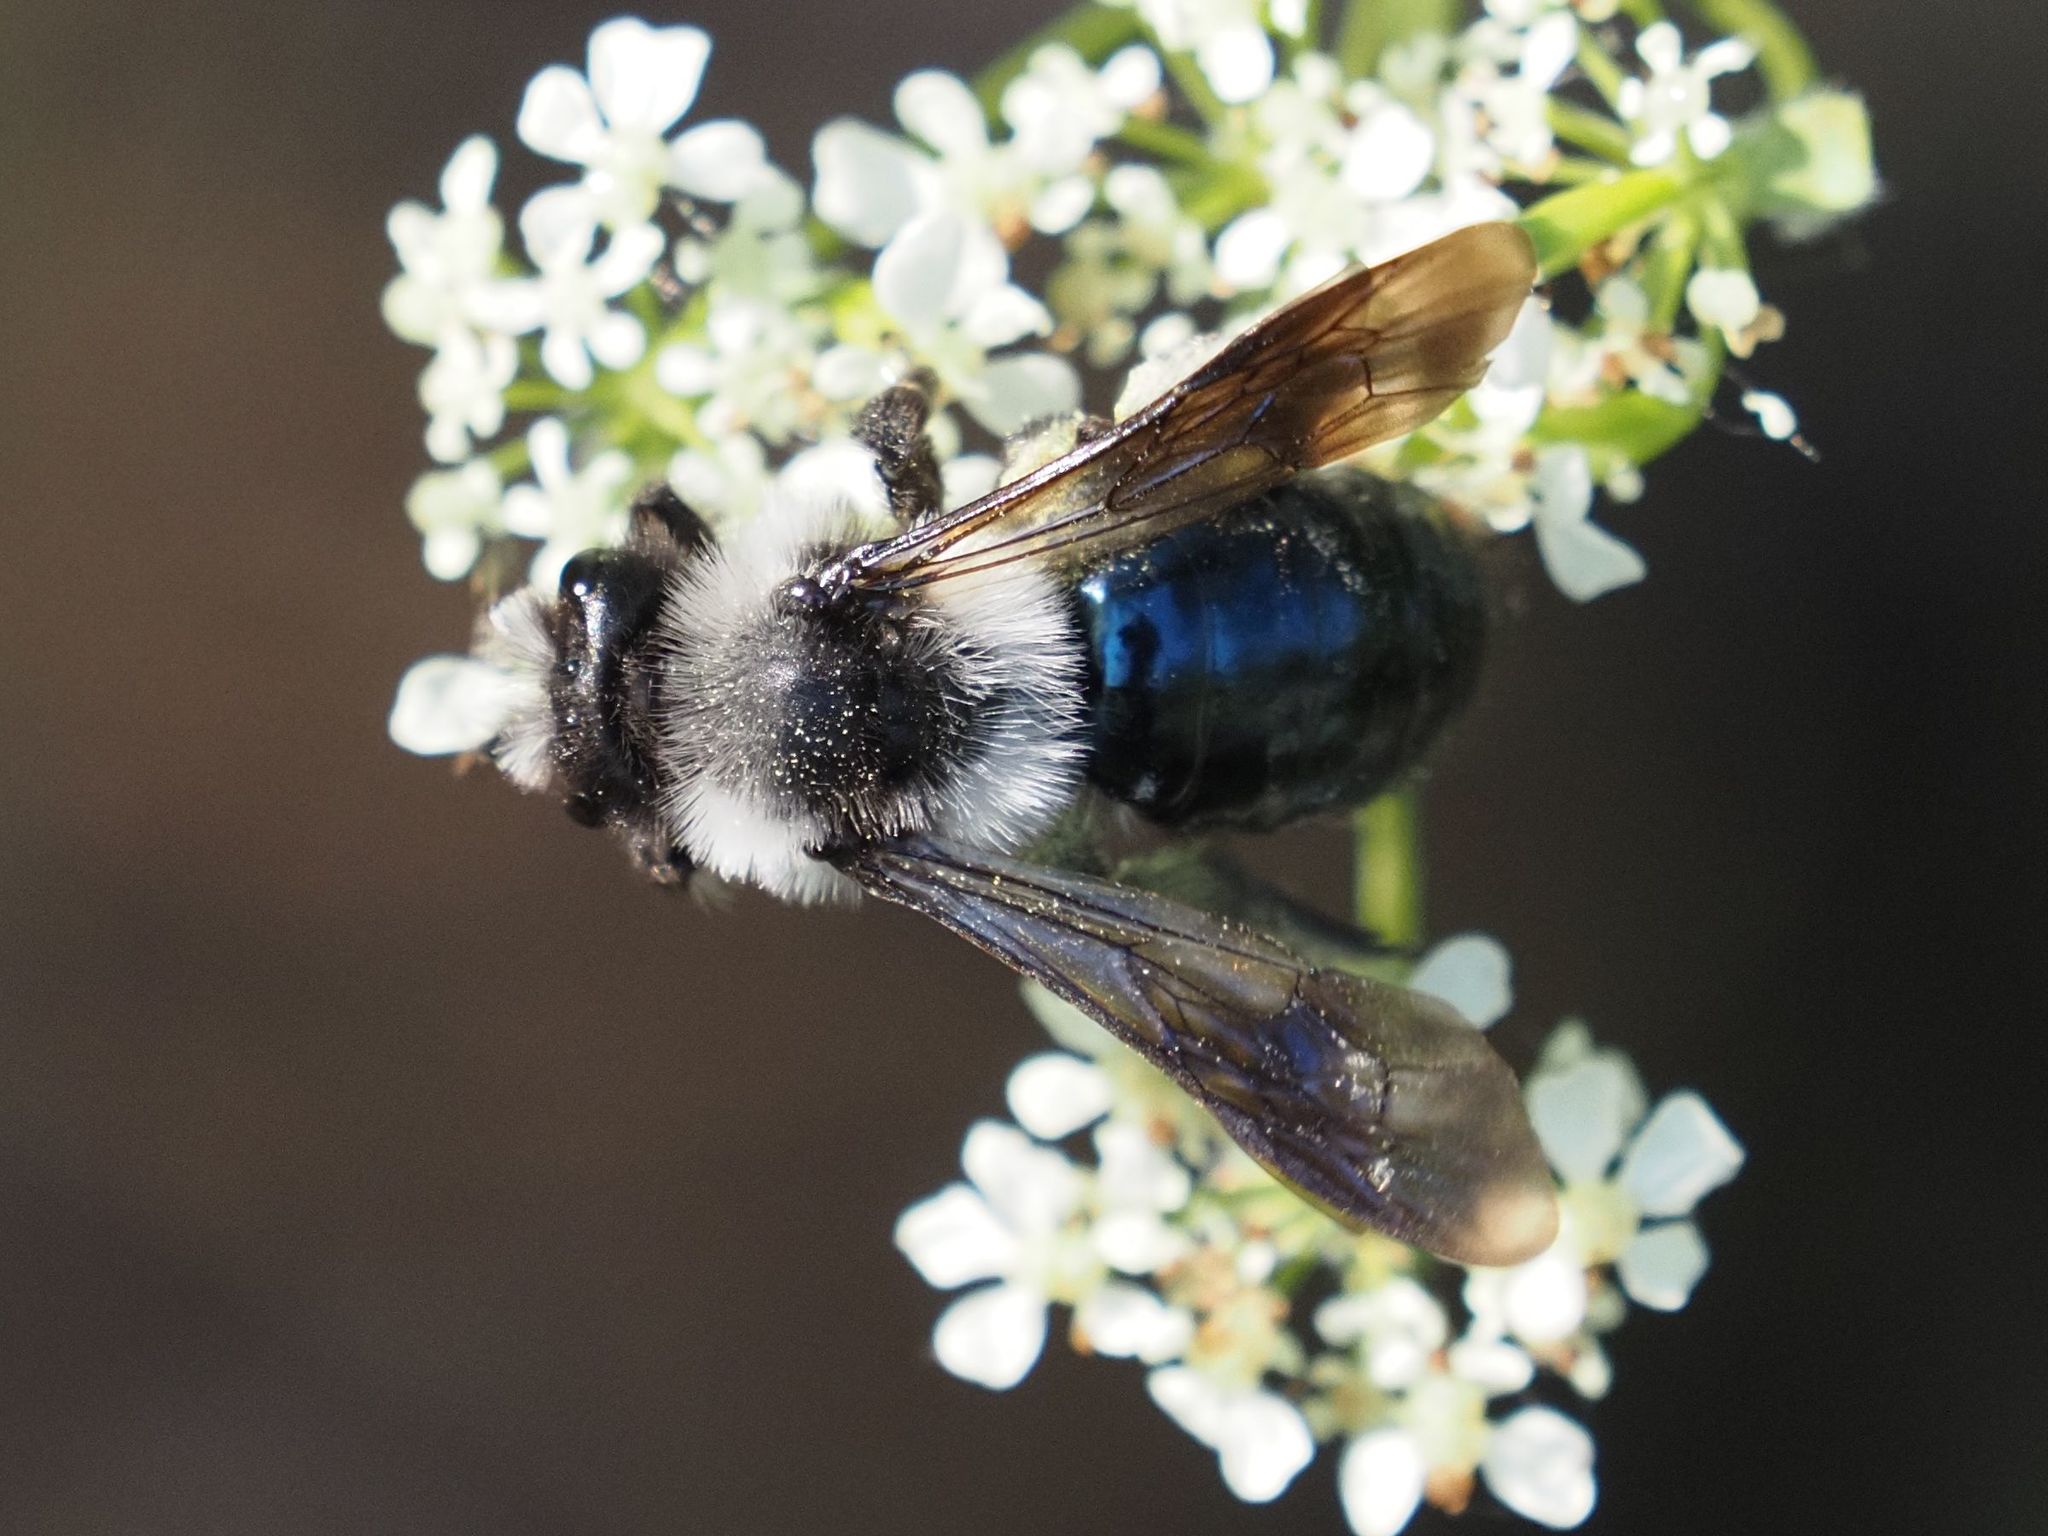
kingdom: Animalia
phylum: Arthropoda
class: Insecta
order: Hymenoptera
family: Andrenidae
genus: Andrena
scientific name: Andrena cineraria
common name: Ashy mining bee
